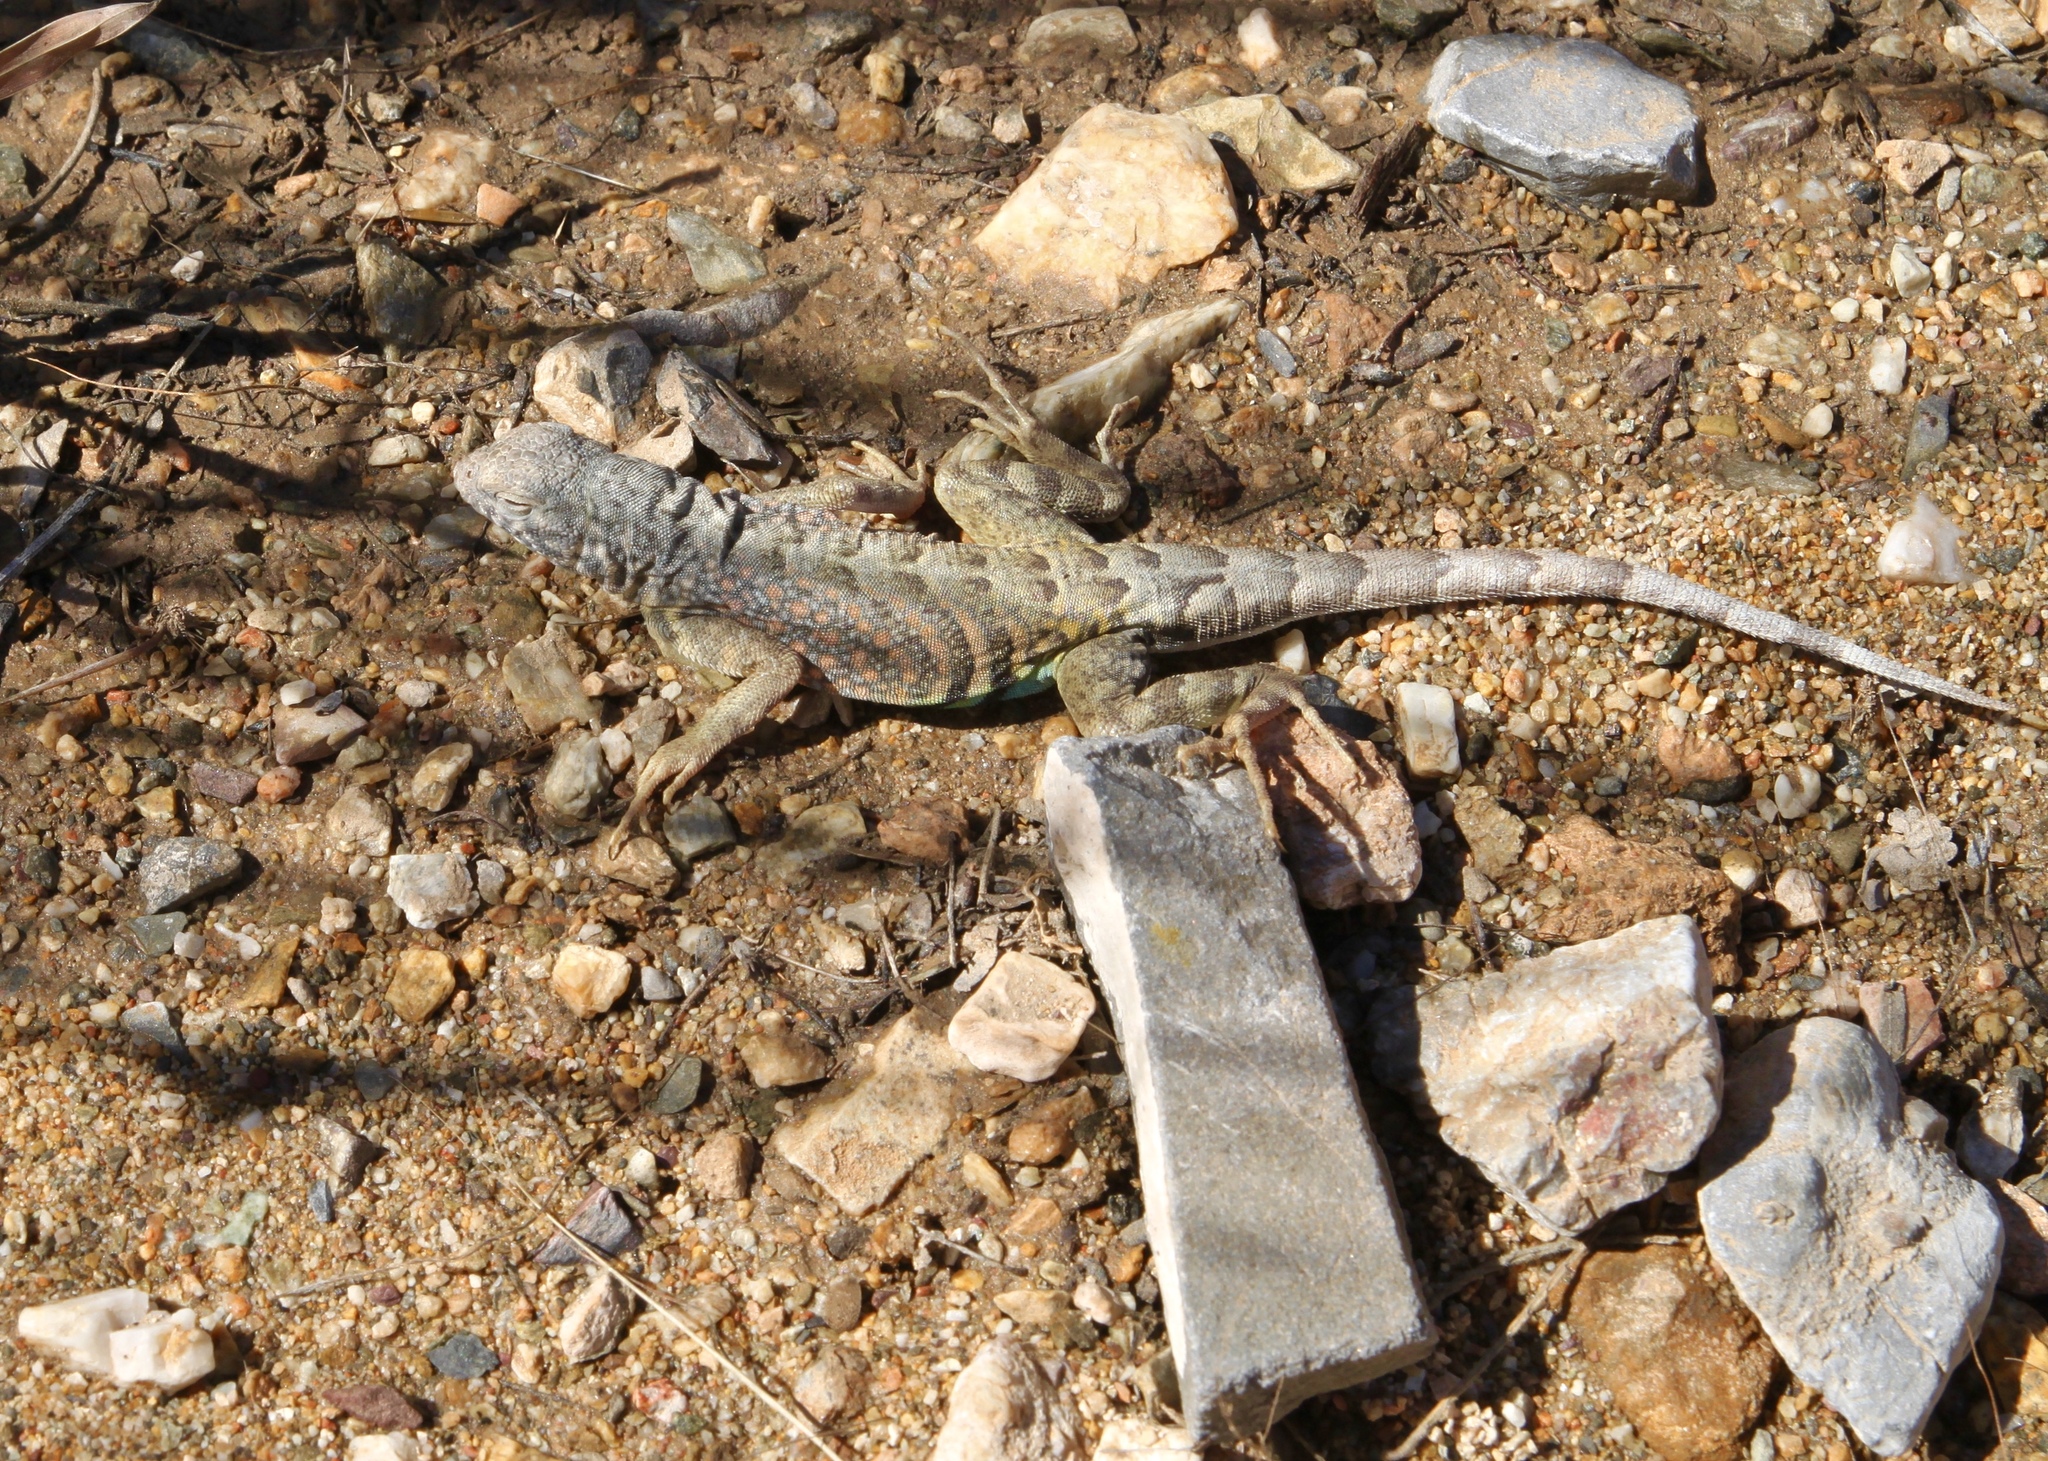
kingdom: Animalia
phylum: Chordata
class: Squamata
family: Phrynosomatidae
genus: Cophosaurus
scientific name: Cophosaurus texanus
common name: Greater earless lizard
